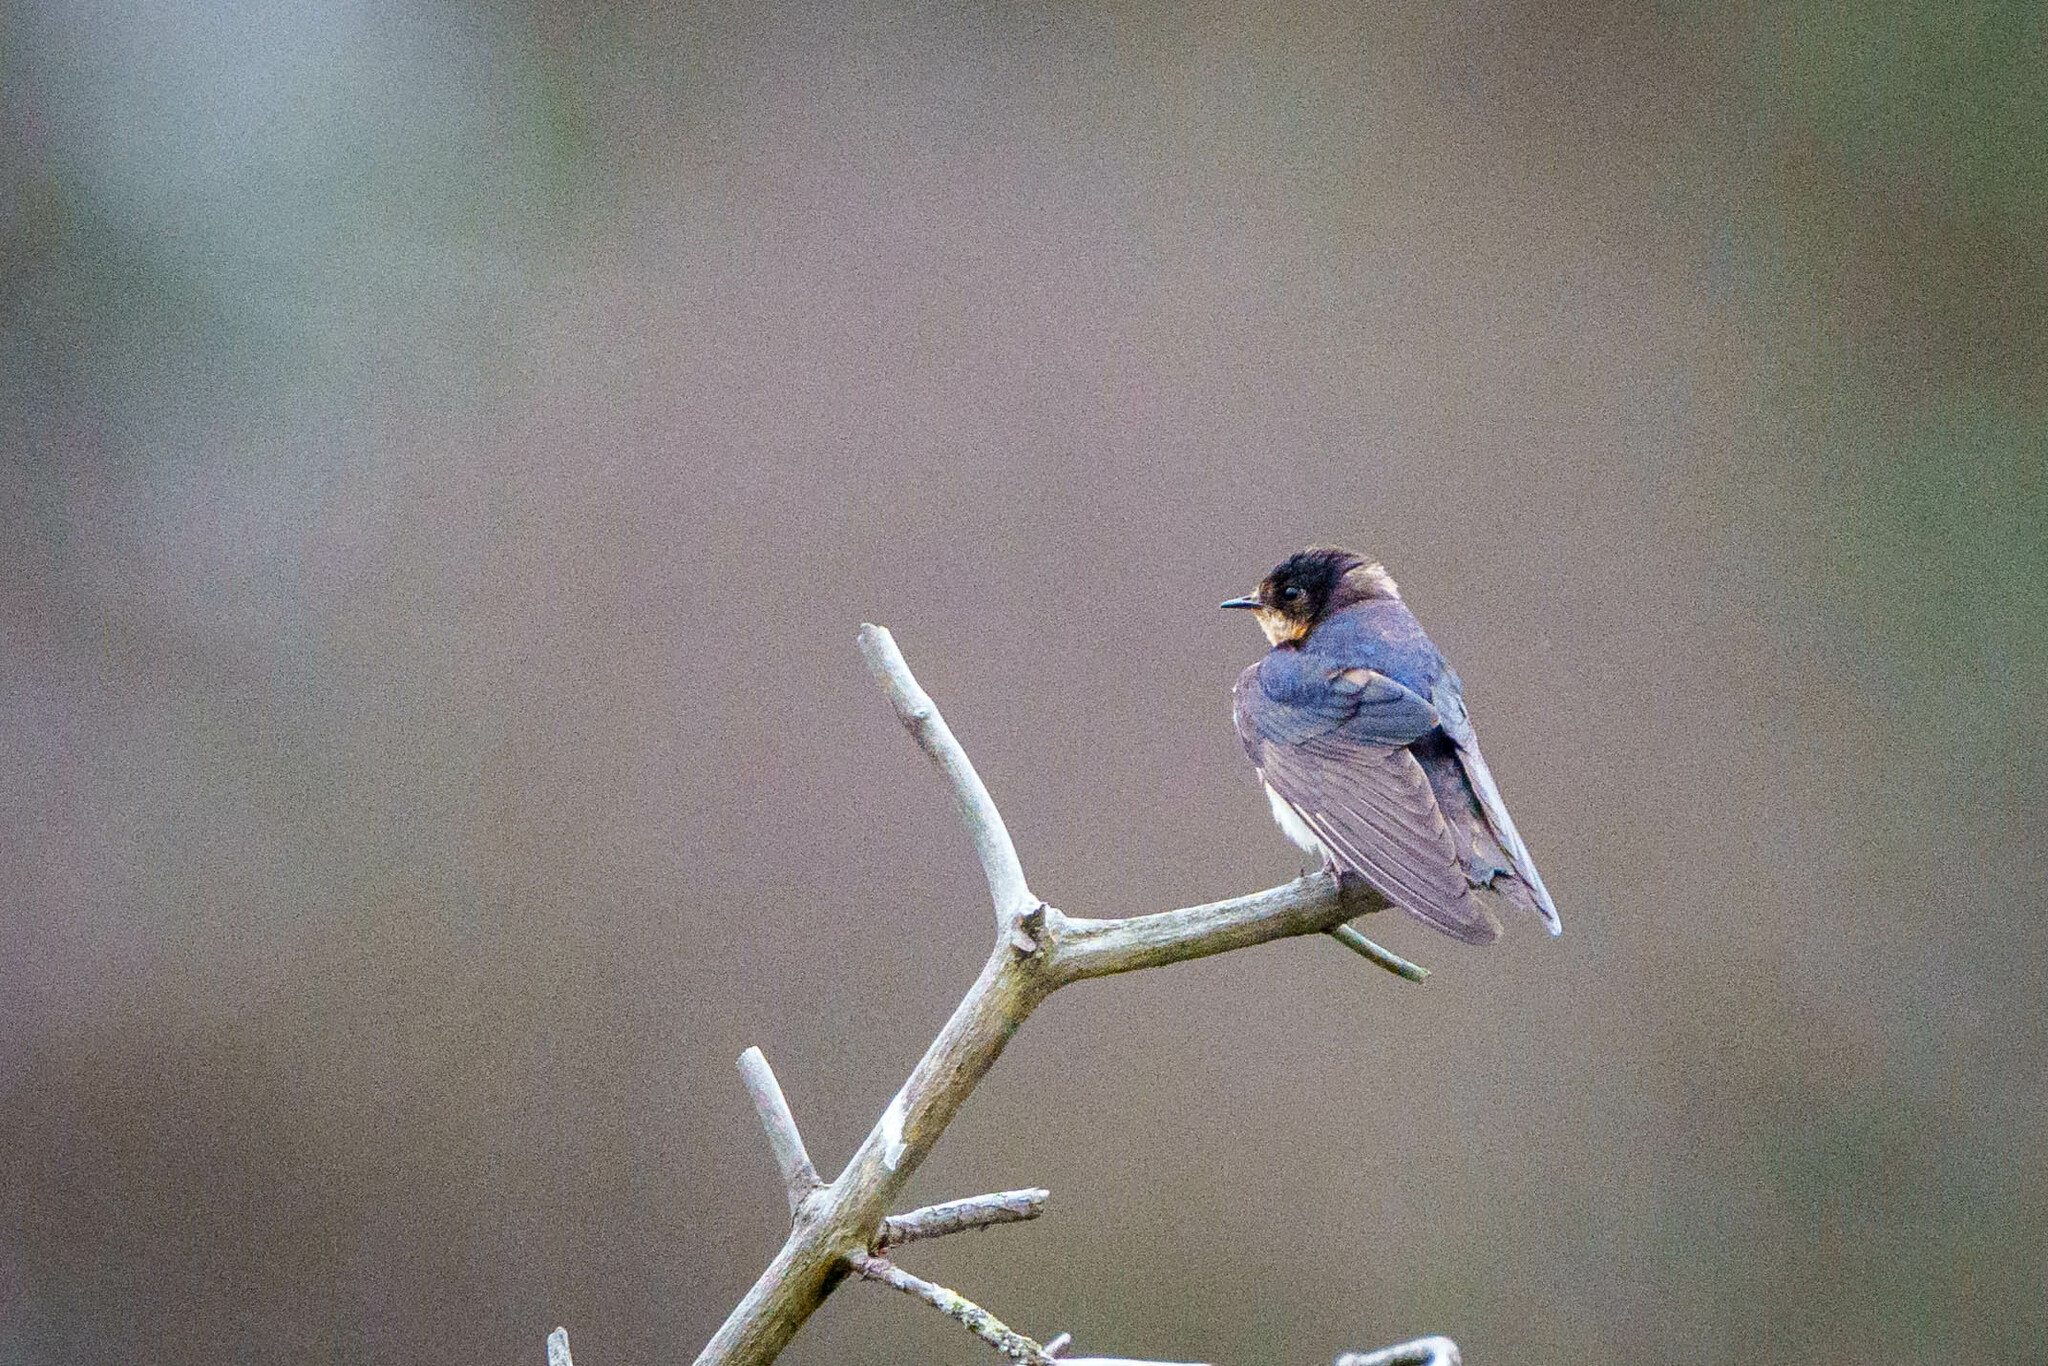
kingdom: Animalia
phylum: Chordata
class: Aves
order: Passeriformes
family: Hirundinidae
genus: Hirundo
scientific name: Hirundo rustica
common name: Barn swallow
